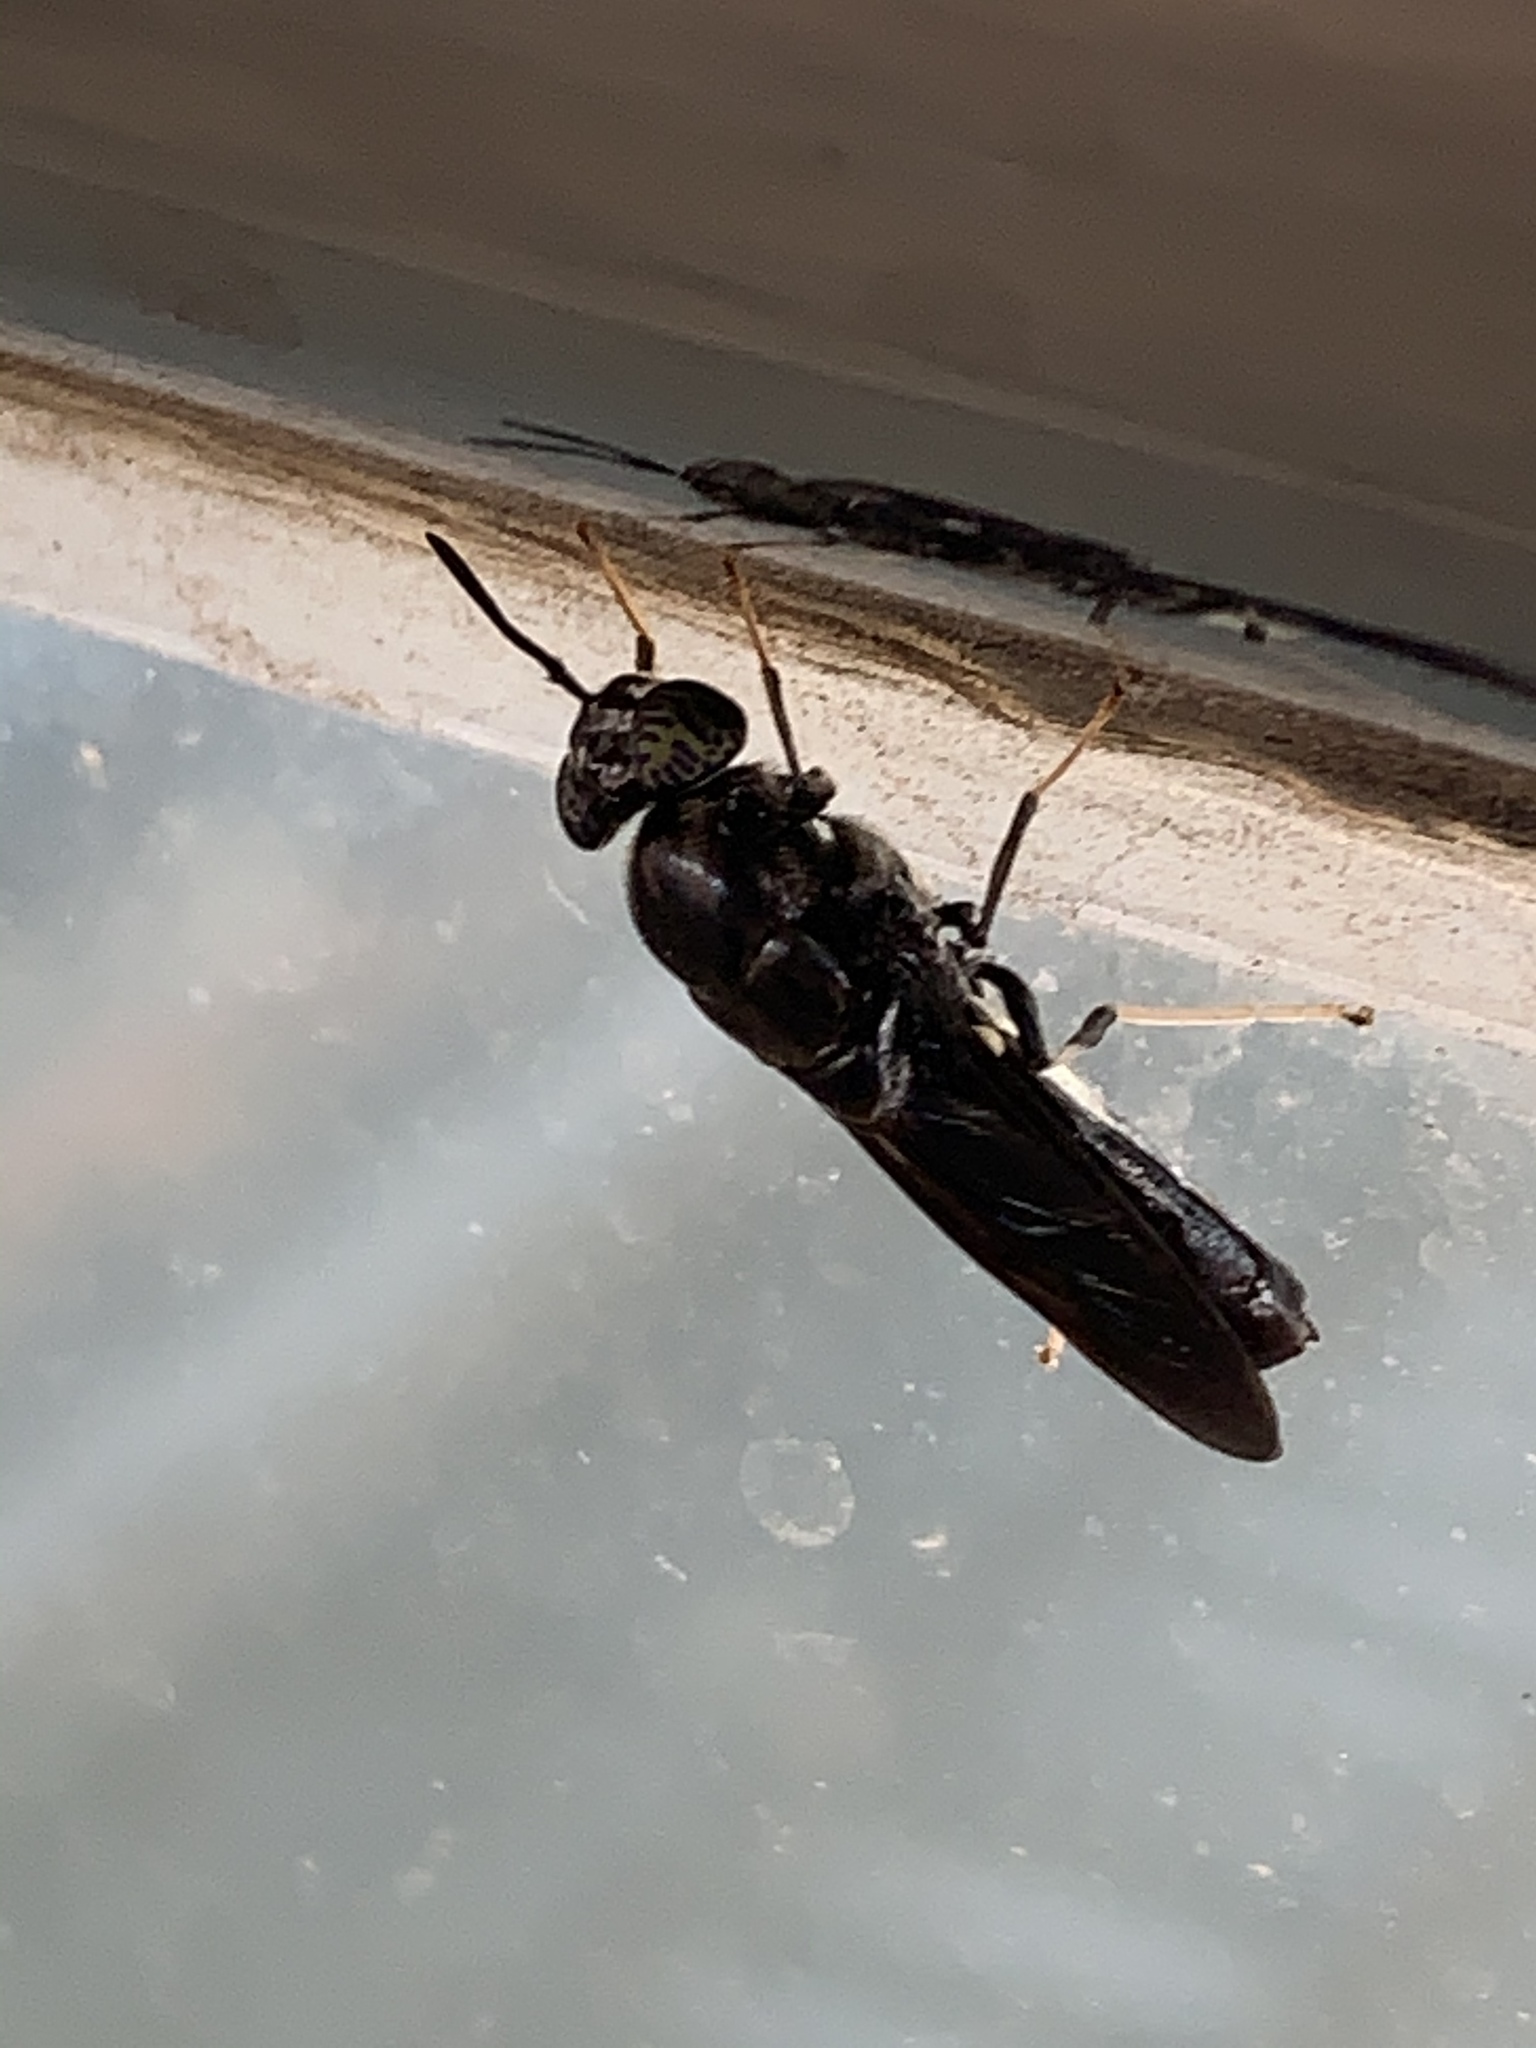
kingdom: Animalia
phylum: Arthropoda
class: Insecta
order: Diptera
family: Stratiomyidae
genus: Hermetia
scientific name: Hermetia illucens
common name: Black soldier fly
